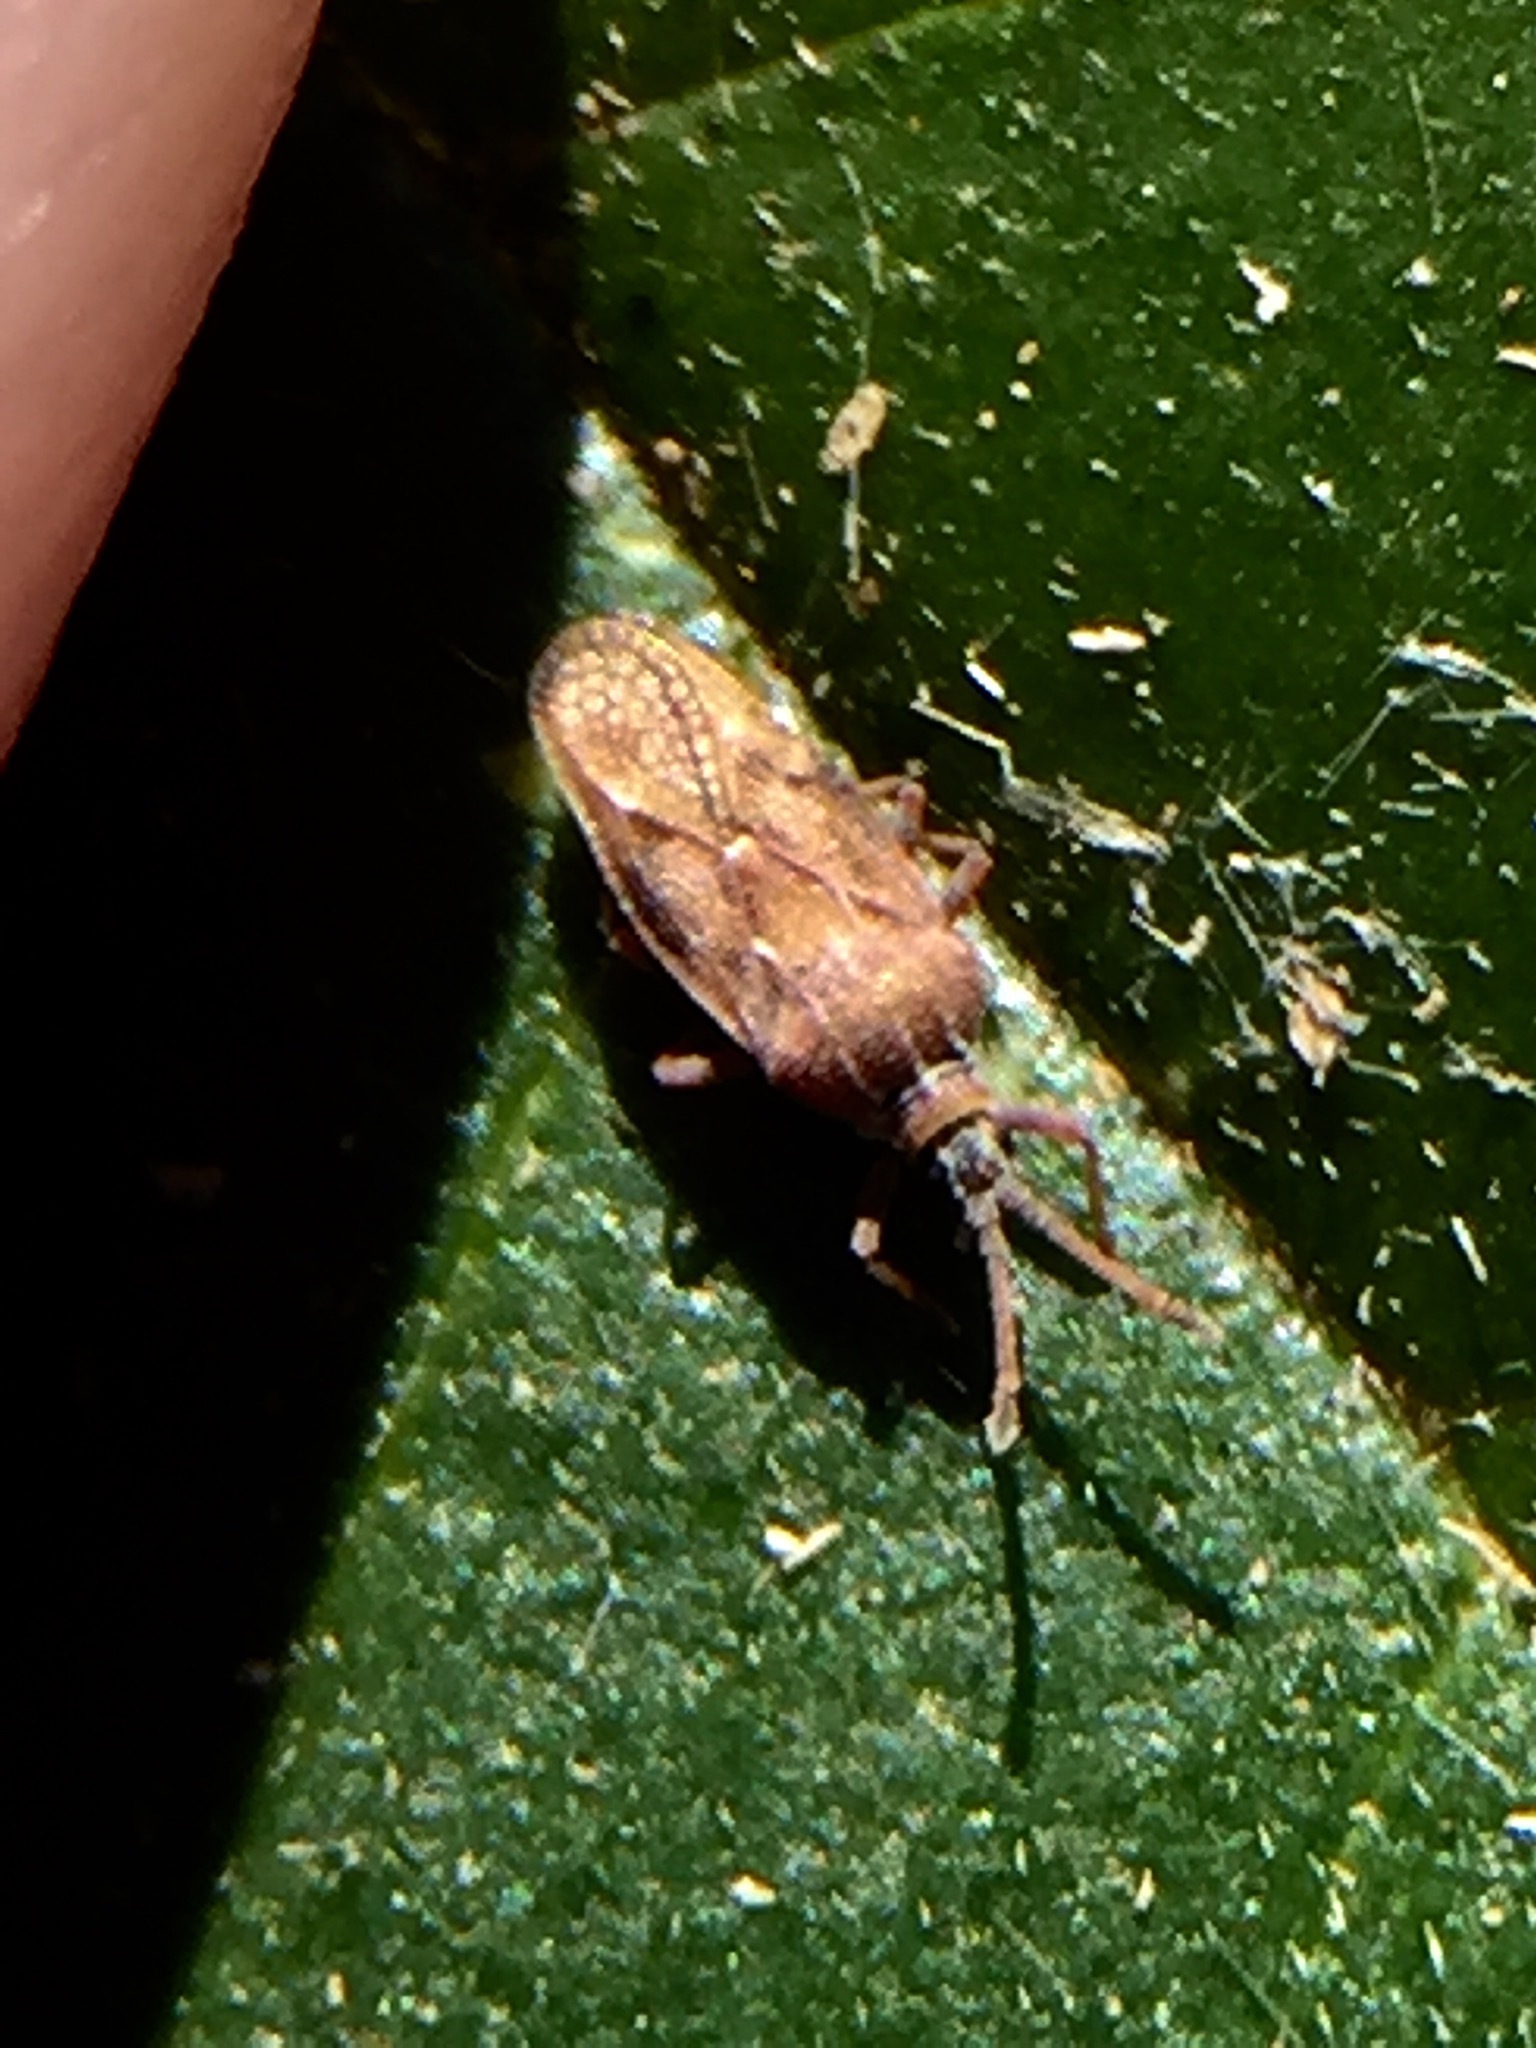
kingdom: Animalia
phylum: Arthropoda
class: Insecta
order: Hemiptera
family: Tingidae
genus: Leptoypha
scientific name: Leptoypha hospita
